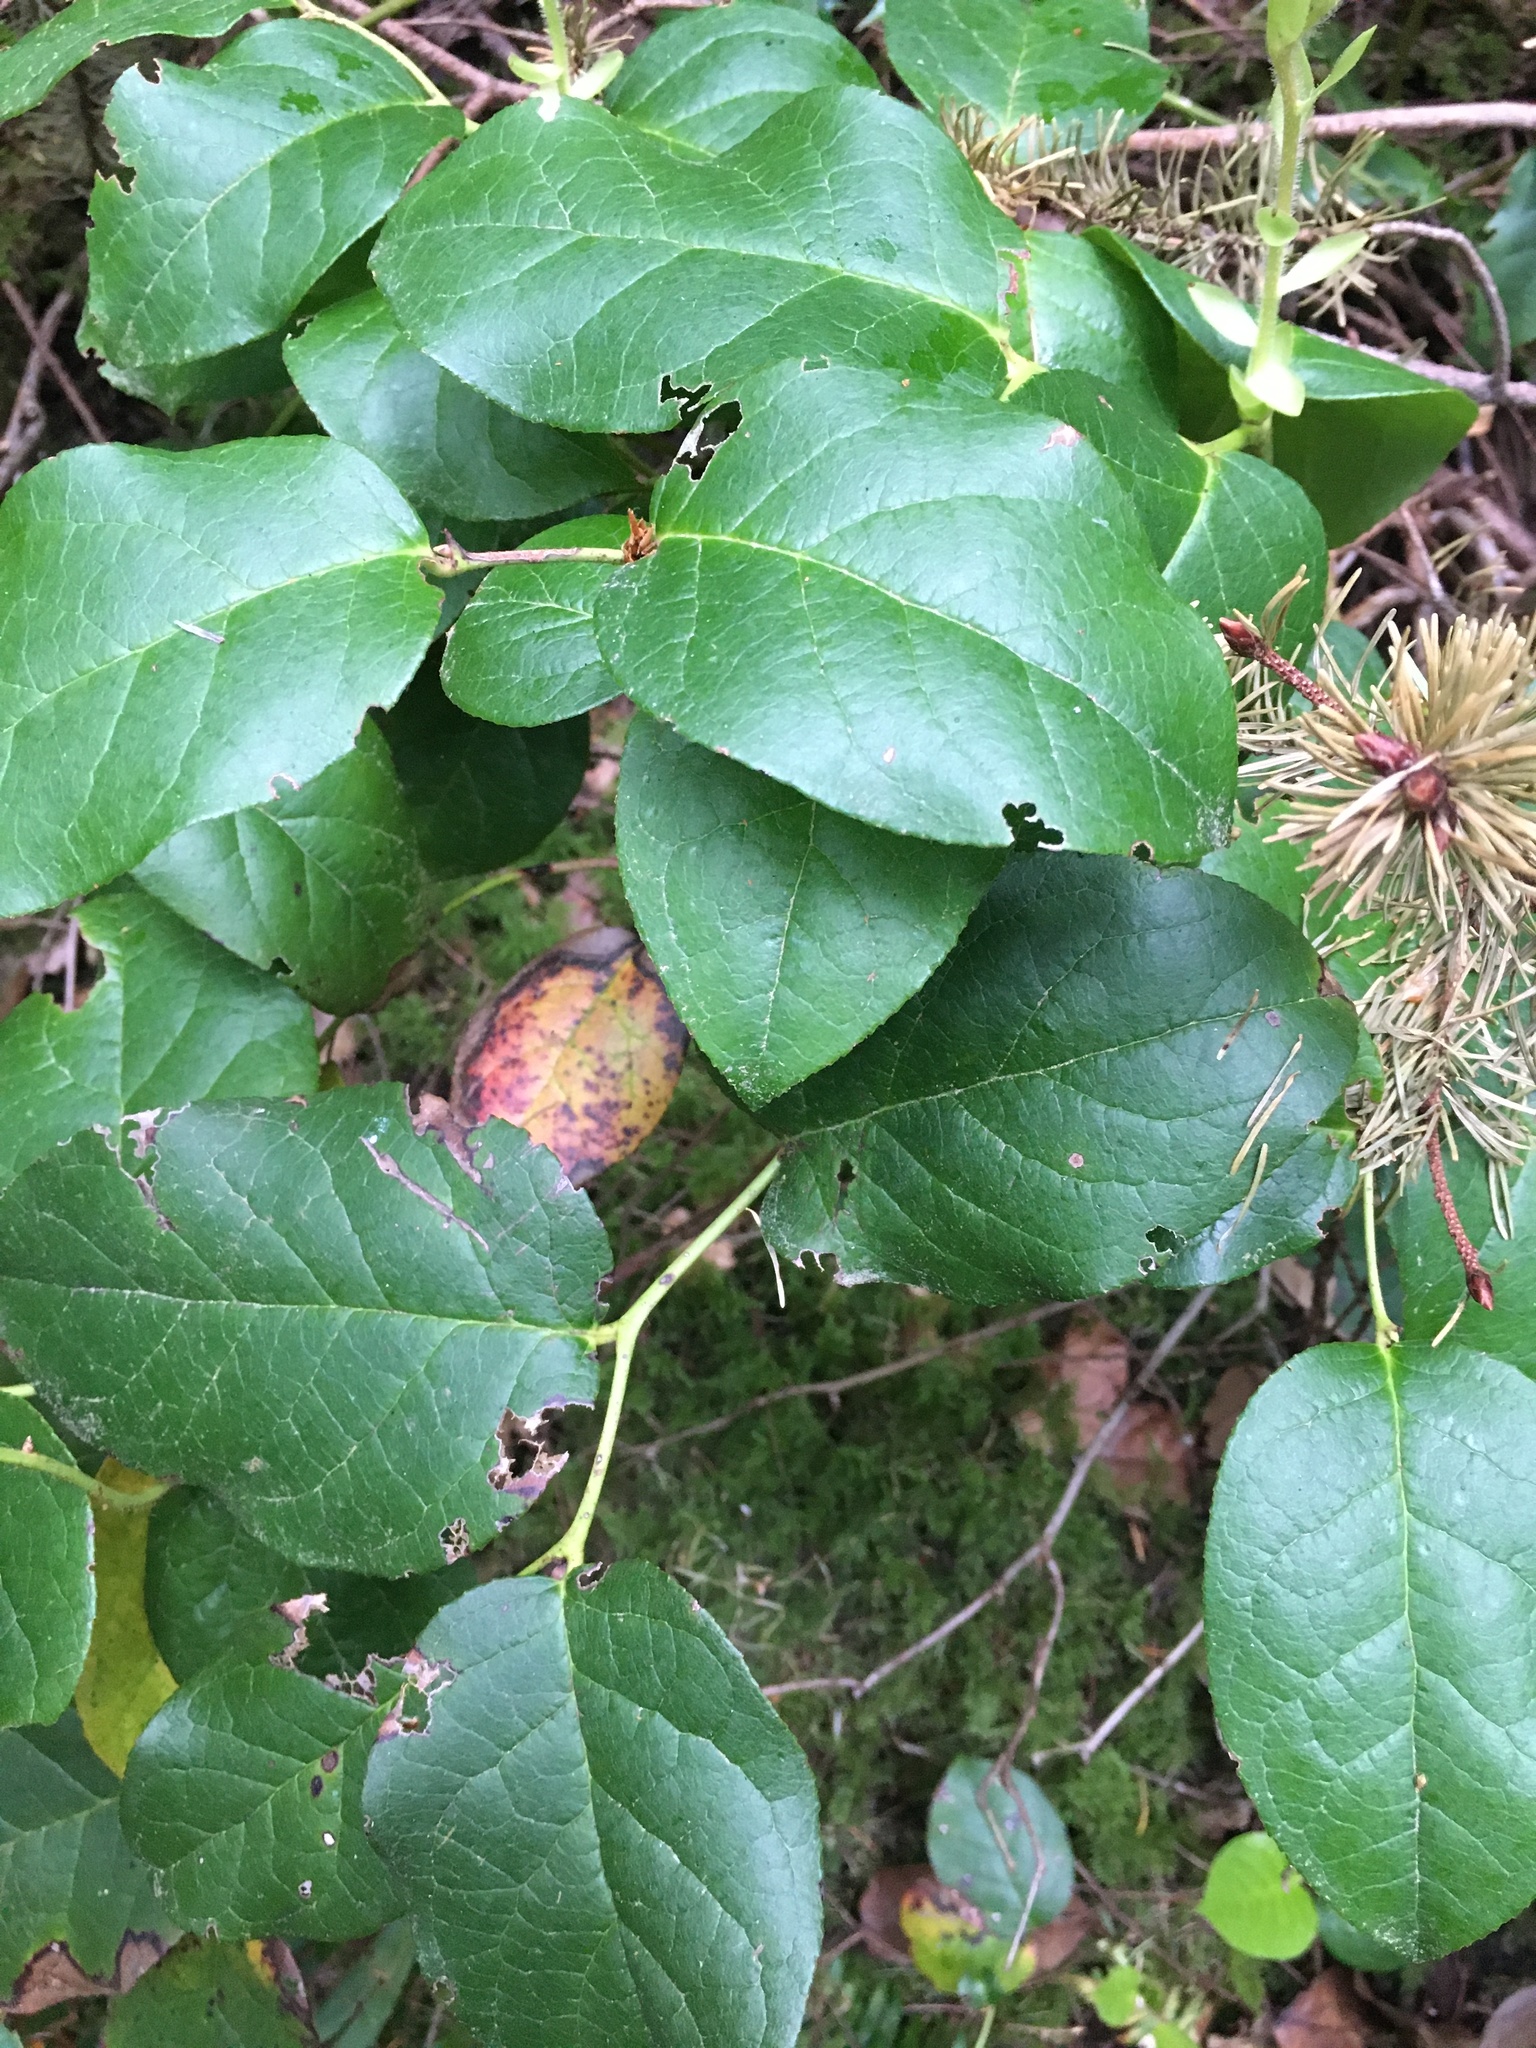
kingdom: Plantae
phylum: Tracheophyta
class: Magnoliopsida
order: Ericales
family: Ericaceae
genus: Gaultheria
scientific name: Gaultheria shallon
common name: Shallon
